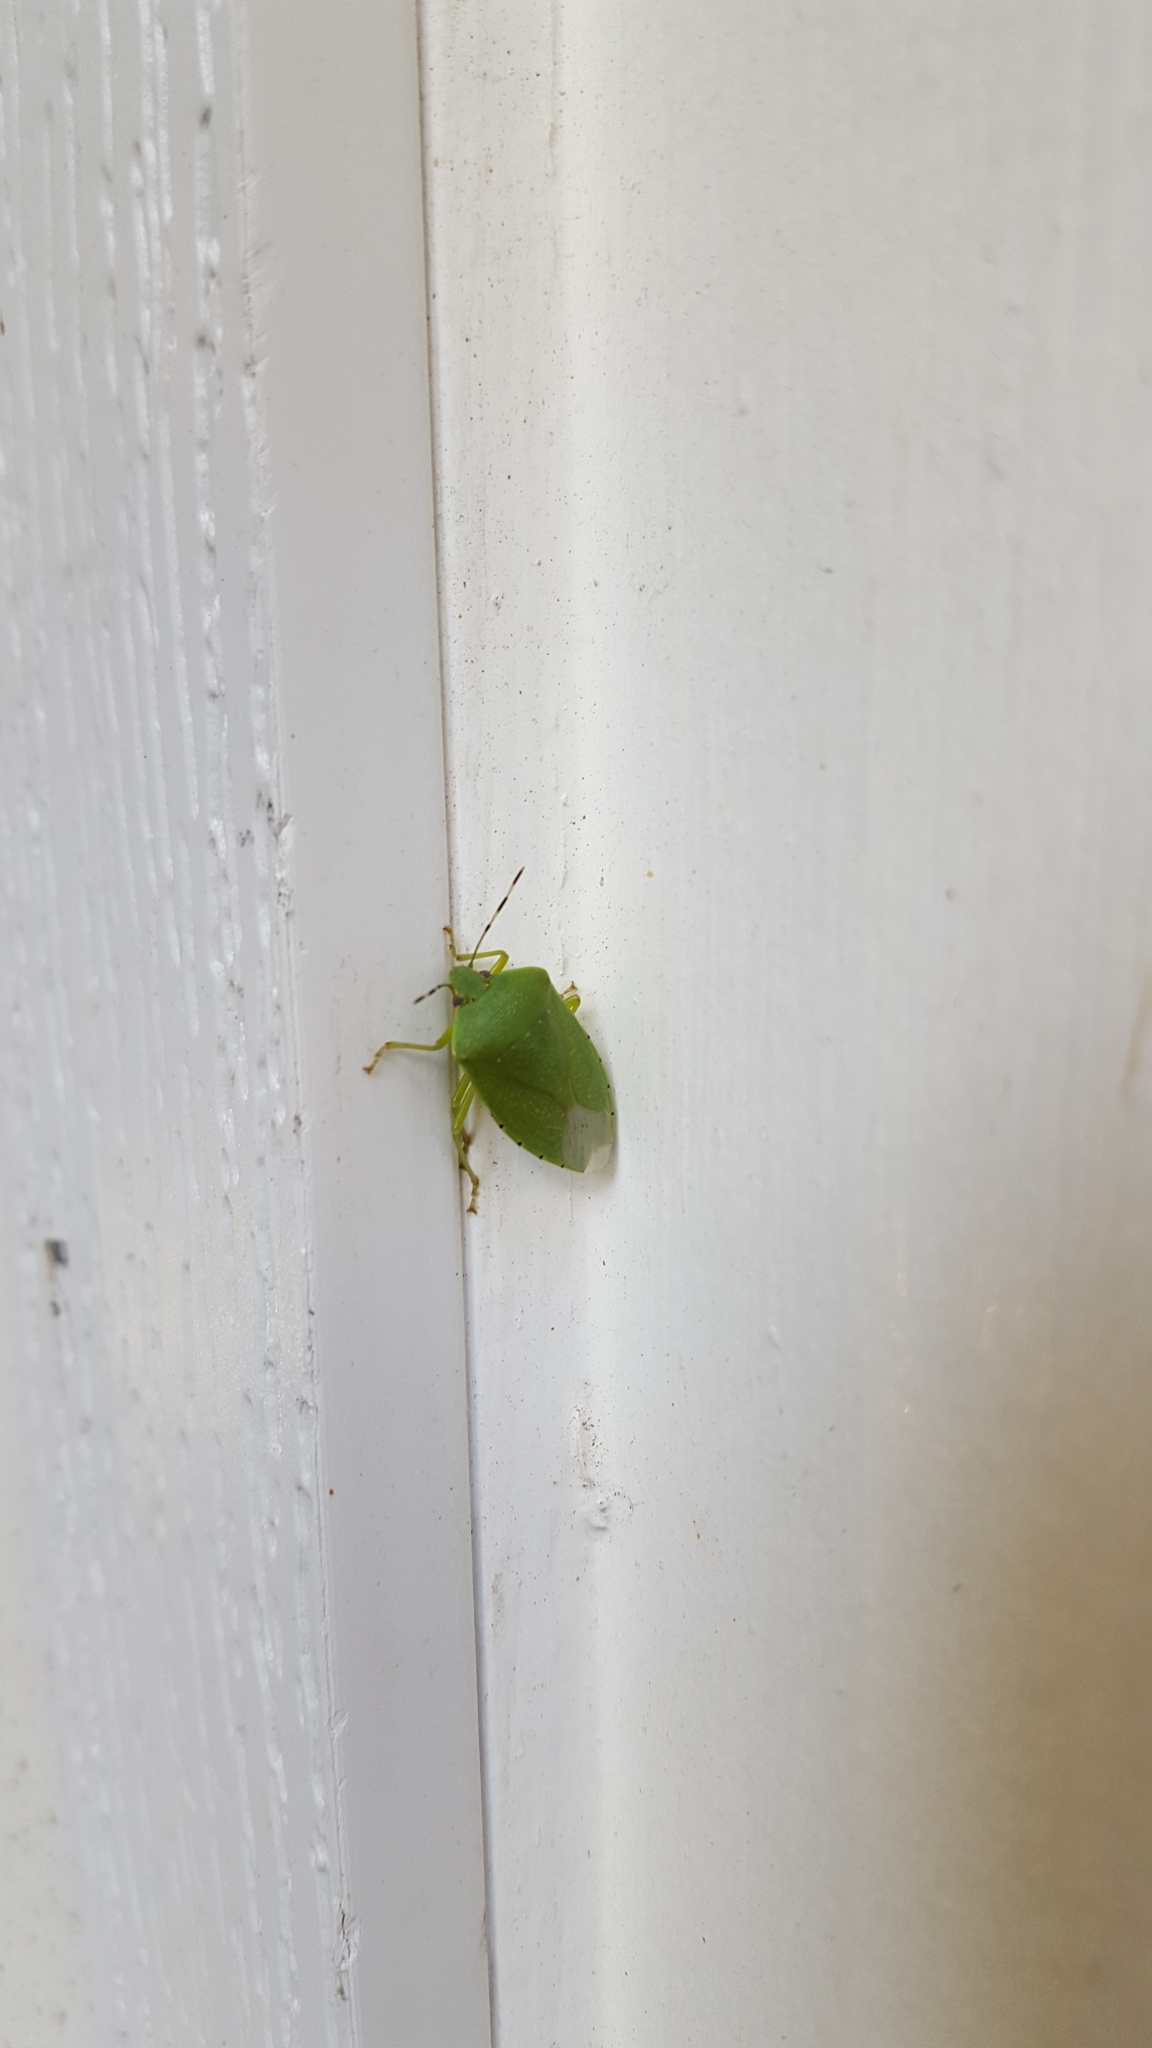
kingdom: Animalia
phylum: Arthropoda
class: Insecta
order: Hemiptera
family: Pentatomidae
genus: Chinavia
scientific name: Chinavia hilaris
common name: Green stink bug
